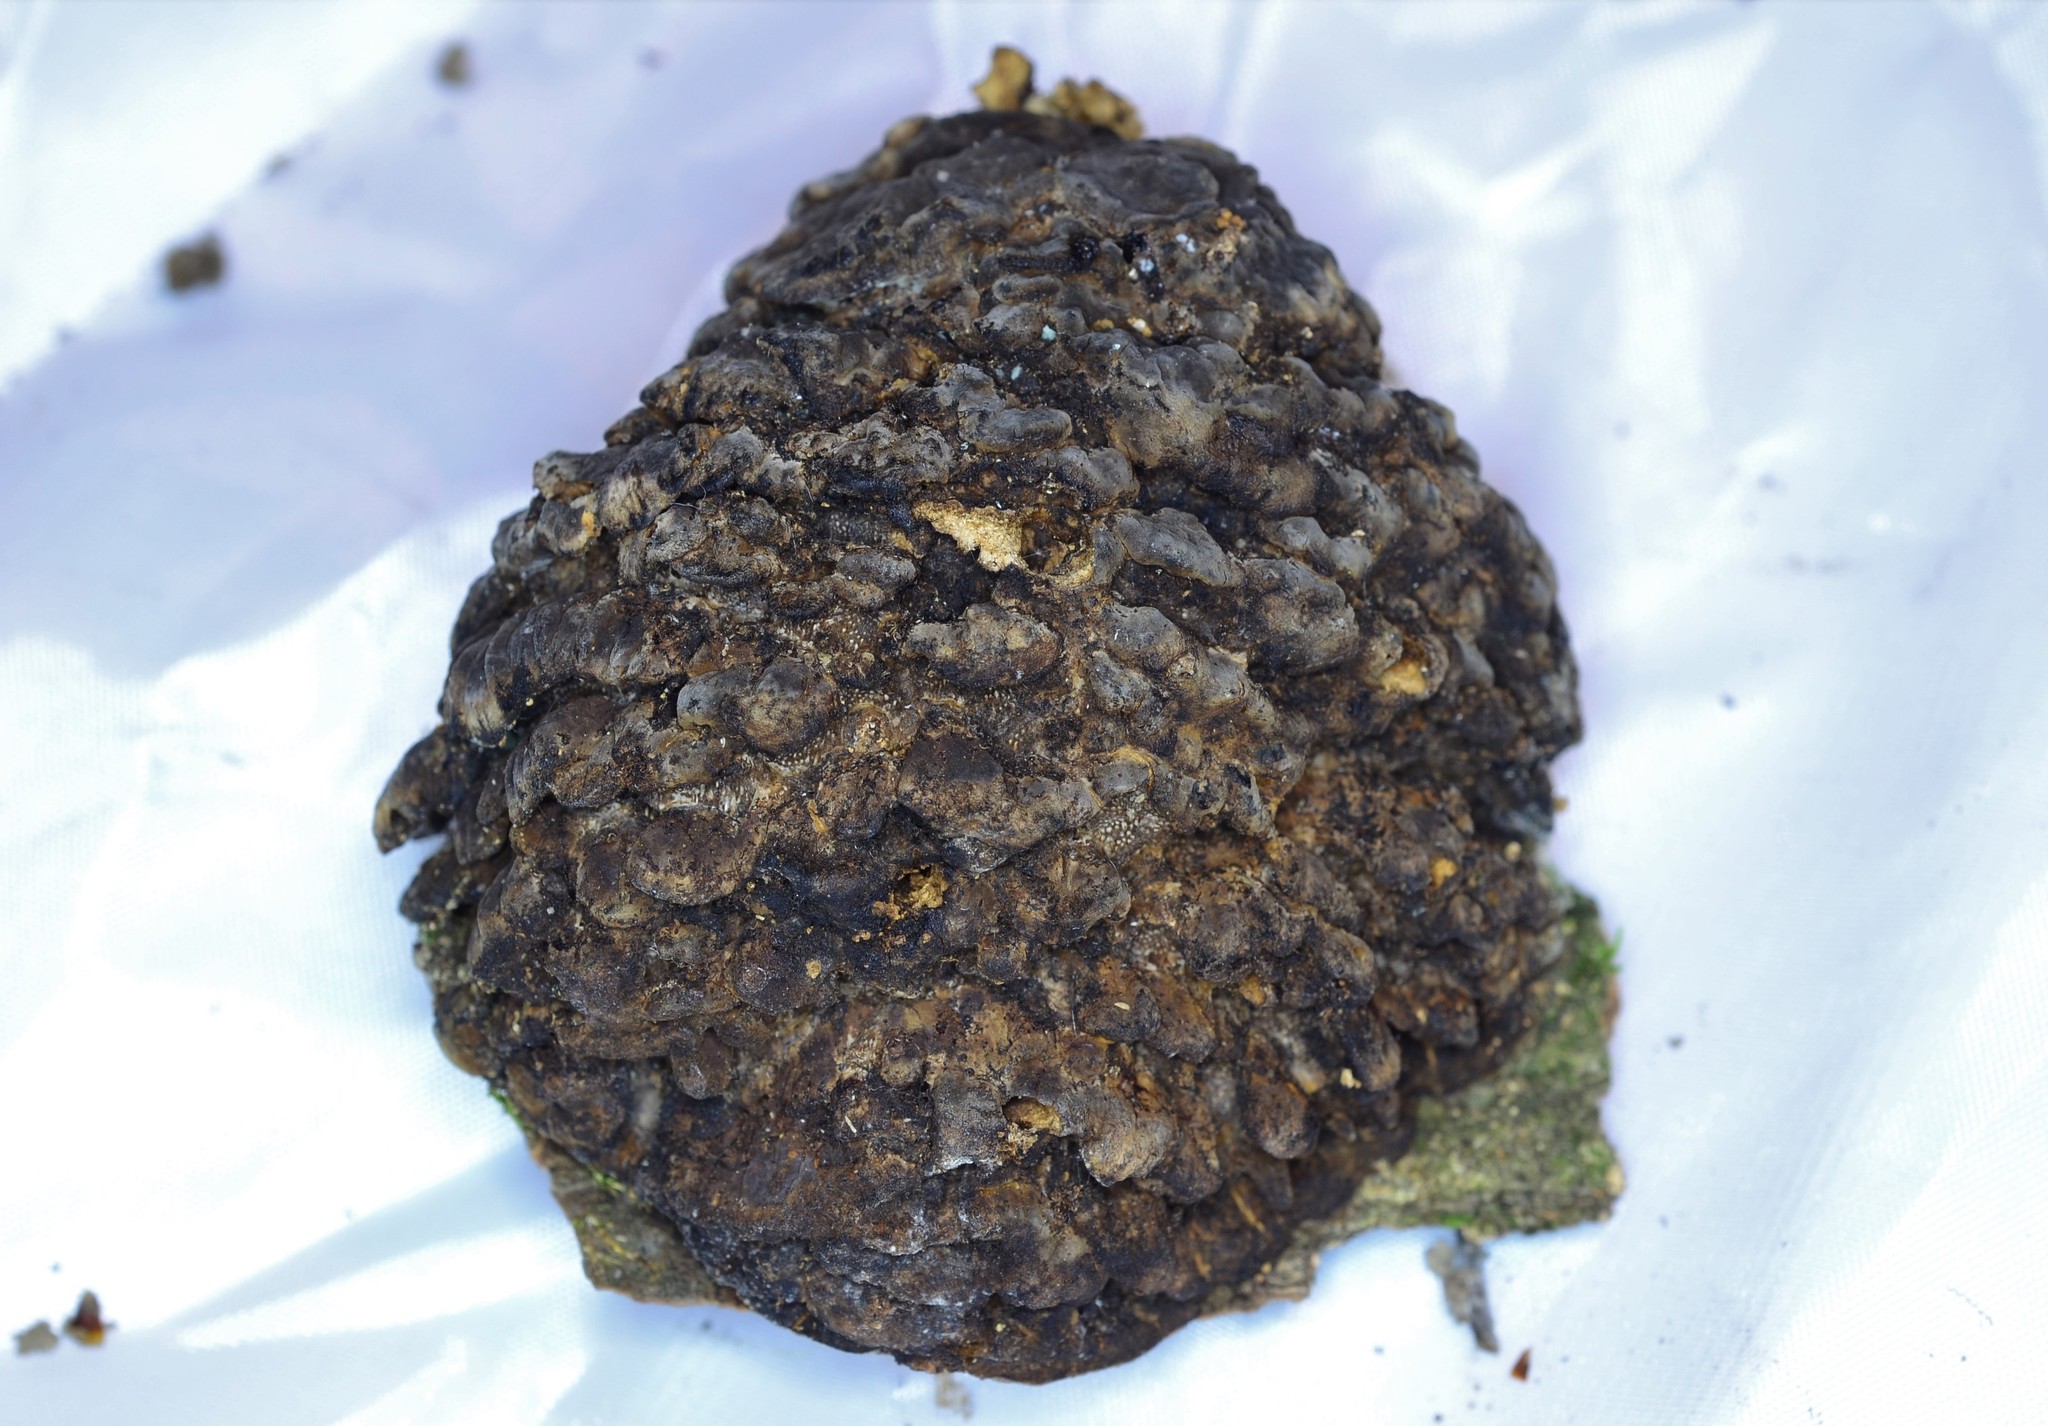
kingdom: Fungi
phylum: Basidiomycota
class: Agaricomycetes
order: Polyporales
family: Polyporaceae
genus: Globifomes
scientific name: Globifomes graveolens
